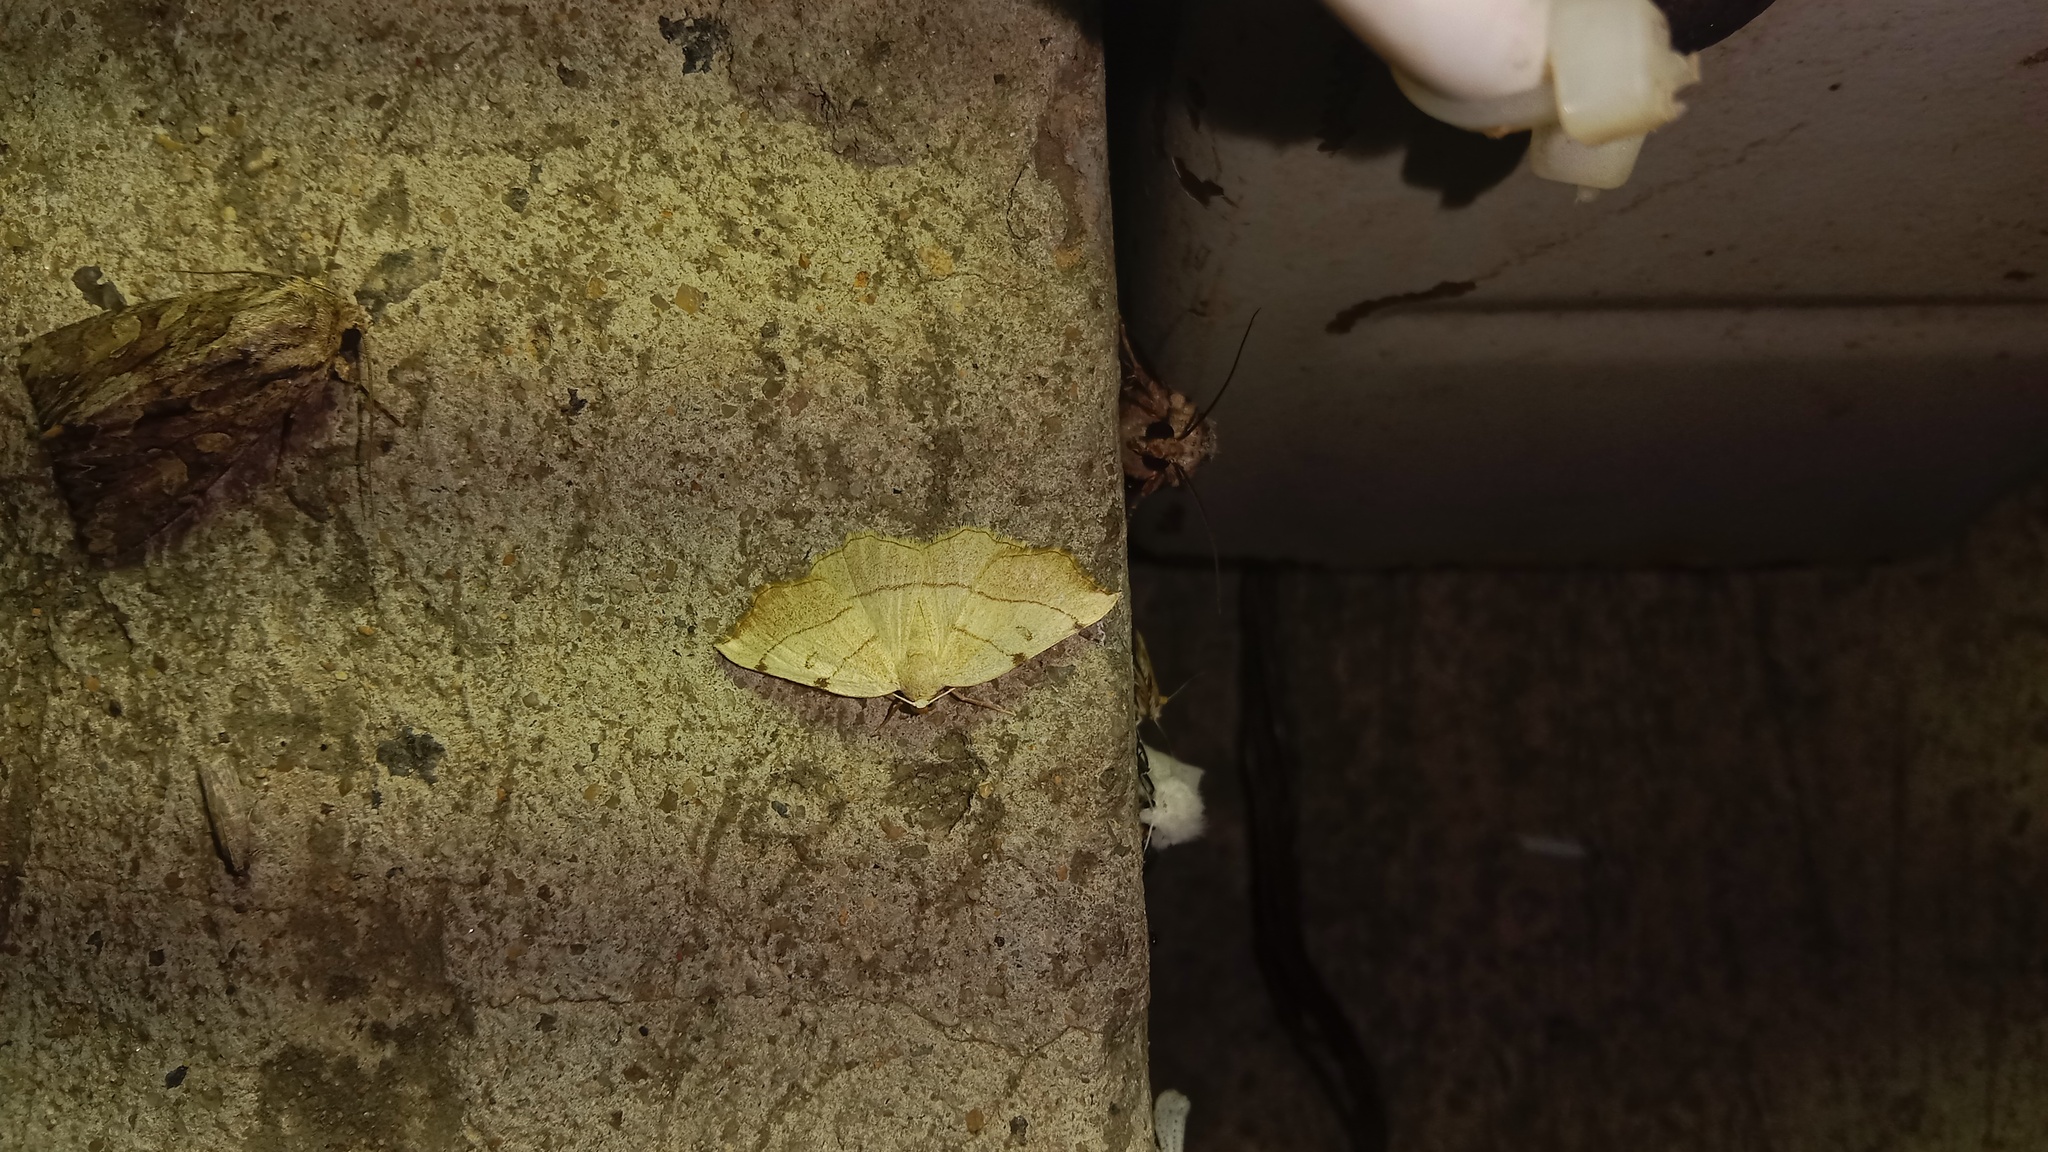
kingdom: Animalia
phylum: Arthropoda
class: Insecta
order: Lepidoptera
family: Geometridae
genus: Eilicrinia
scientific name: Eilicrinia trinotata
